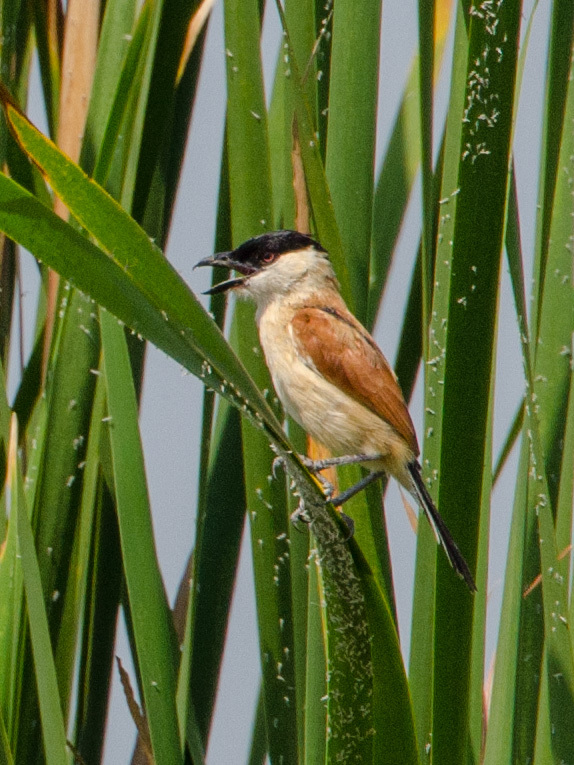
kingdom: Animalia
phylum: Chordata
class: Aves
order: Passeriformes
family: Malaconotidae
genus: Bocagia
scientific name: Bocagia minuta
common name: Marsh tchagra
